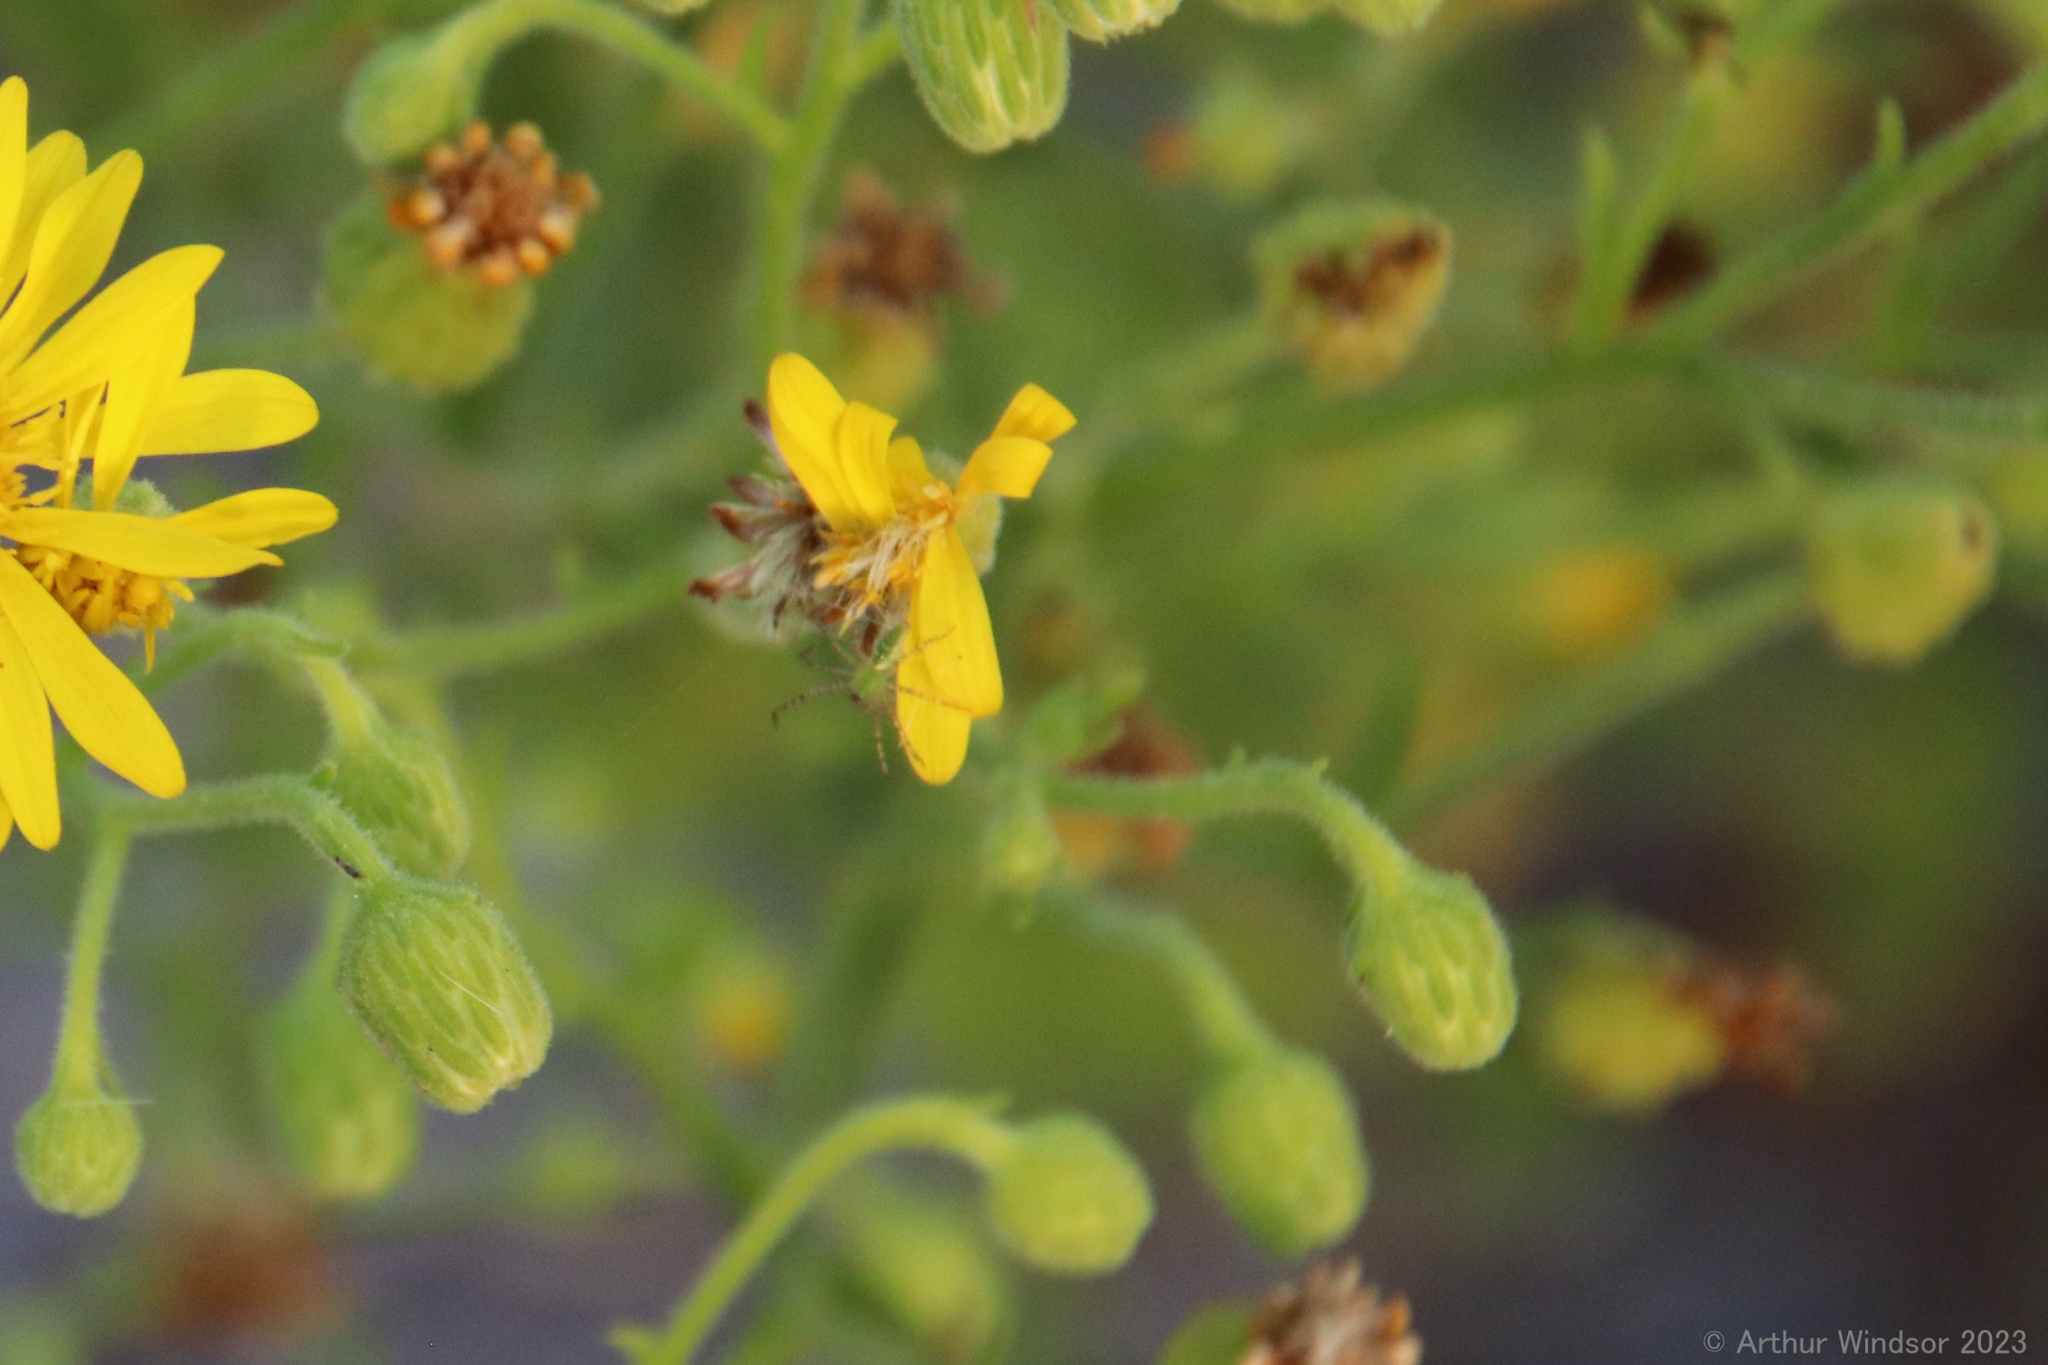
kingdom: Animalia
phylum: Arthropoda
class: Arachnida
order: Araneae
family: Oxyopidae
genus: Peucetia
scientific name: Peucetia viridans
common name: Lynx spiders
